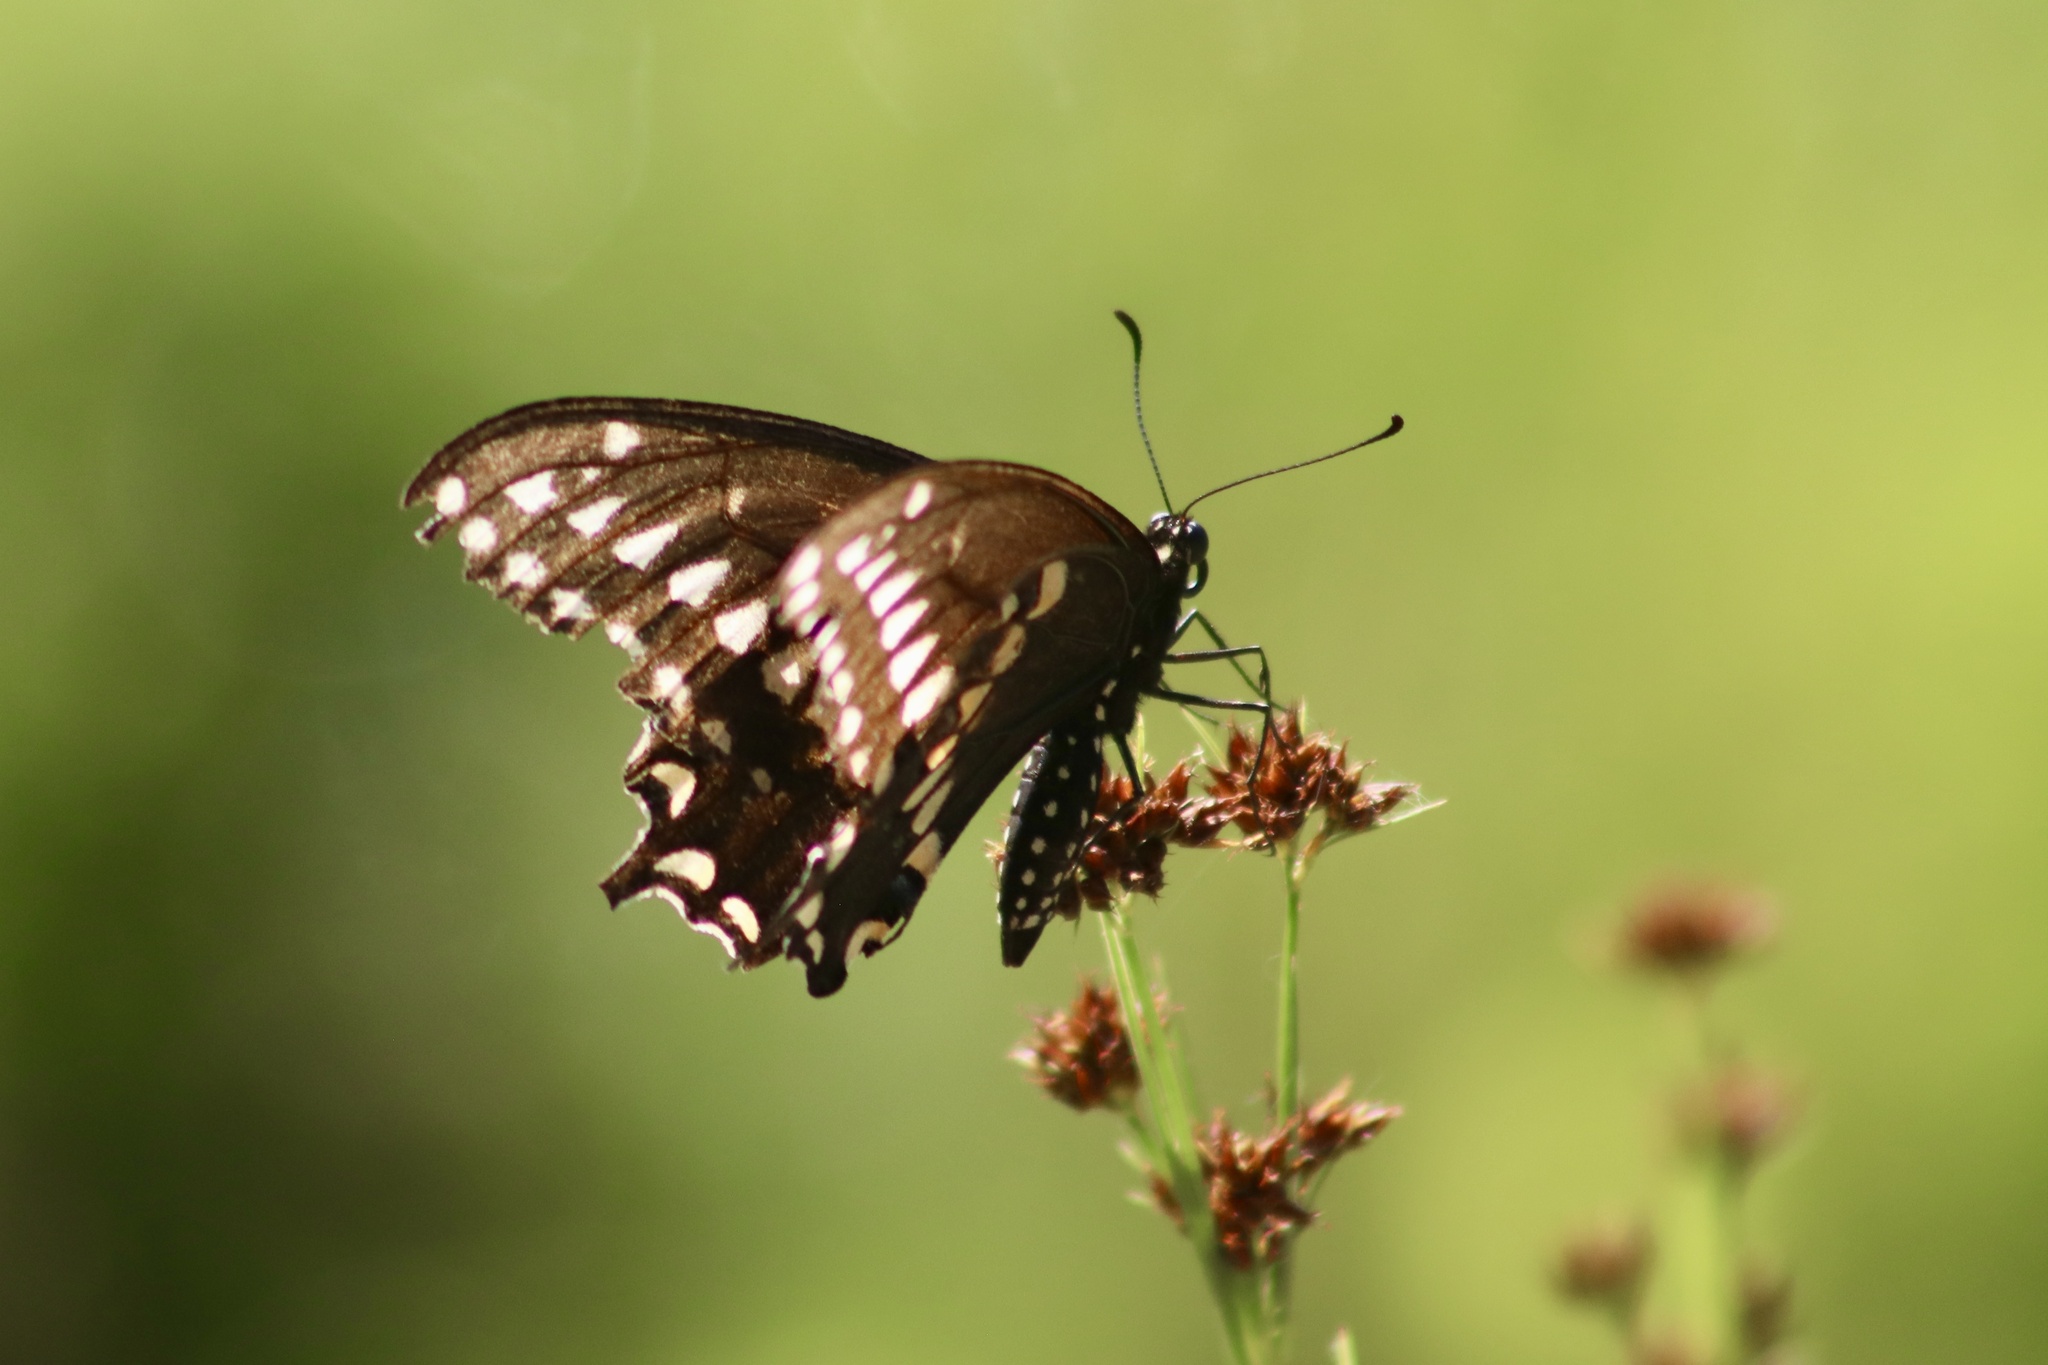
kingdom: Animalia
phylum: Arthropoda
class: Insecta
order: Lepidoptera
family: Papilionidae
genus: Papilio
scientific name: Papilio polyxenes
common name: Black swallowtail
